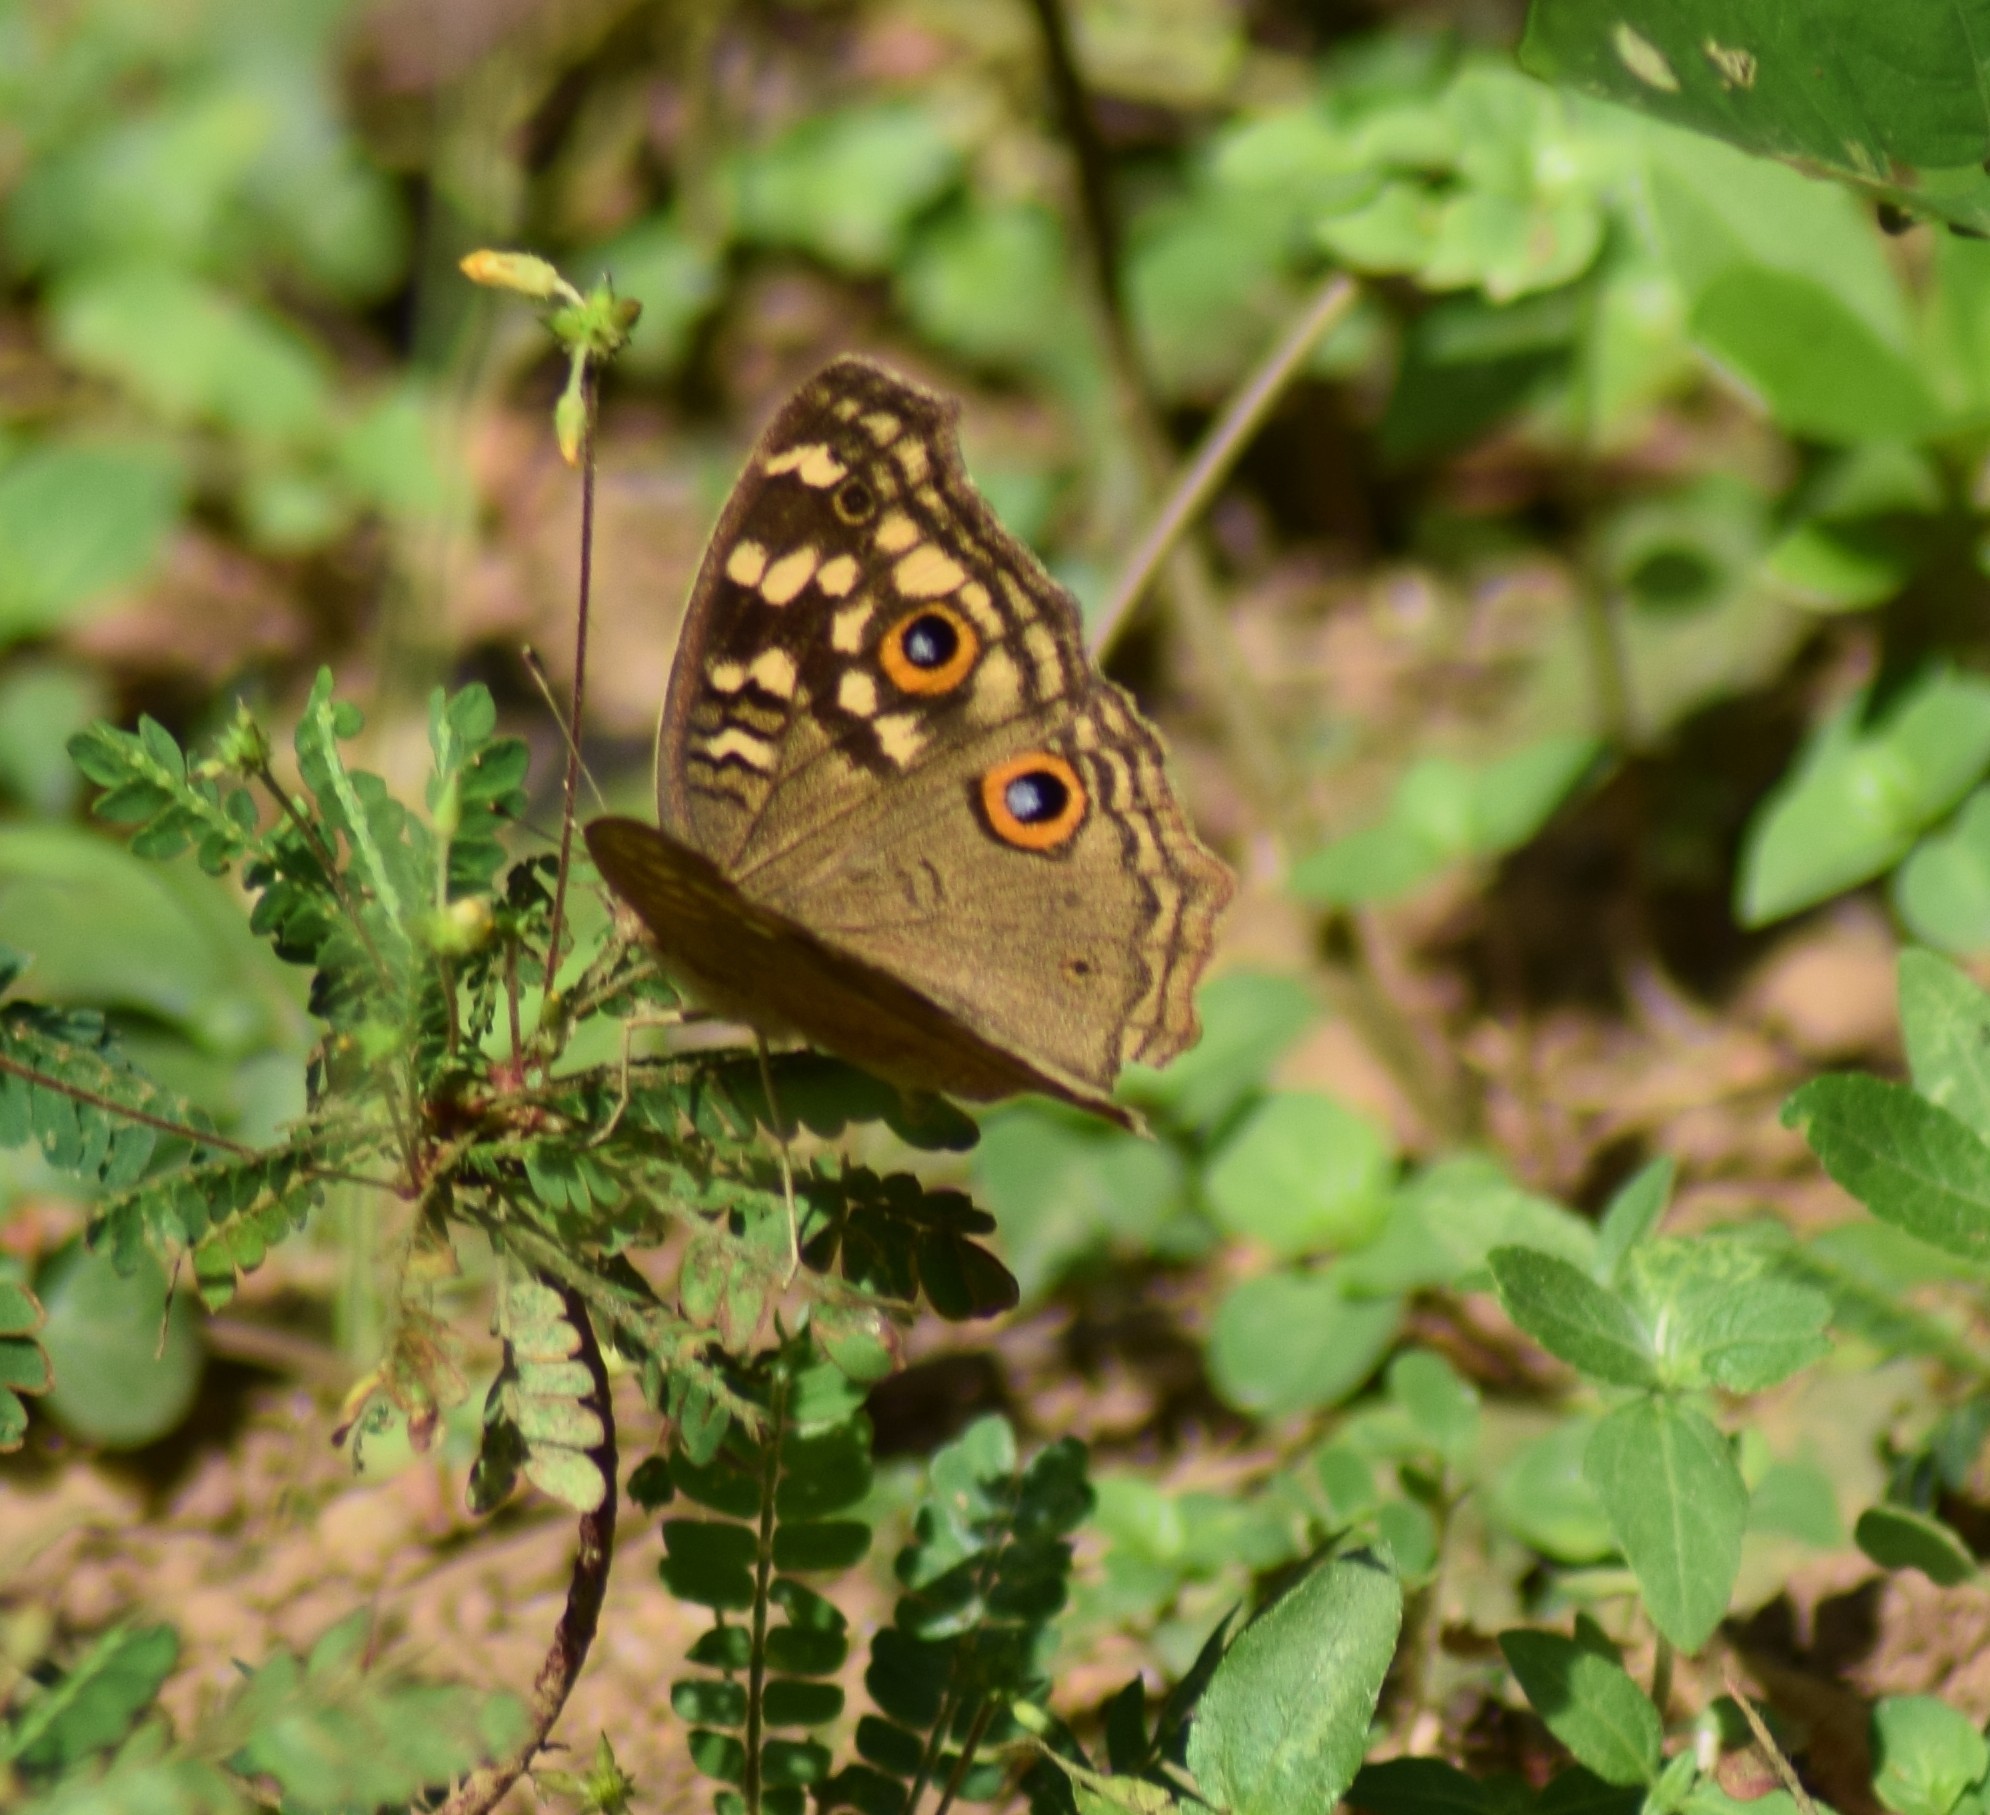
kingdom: Animalia
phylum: Arthropoda
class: Insecta
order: Lepidoptera
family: Nymphalidae
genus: Junonia
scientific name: Junonia lemonias
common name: Lemon pansy
